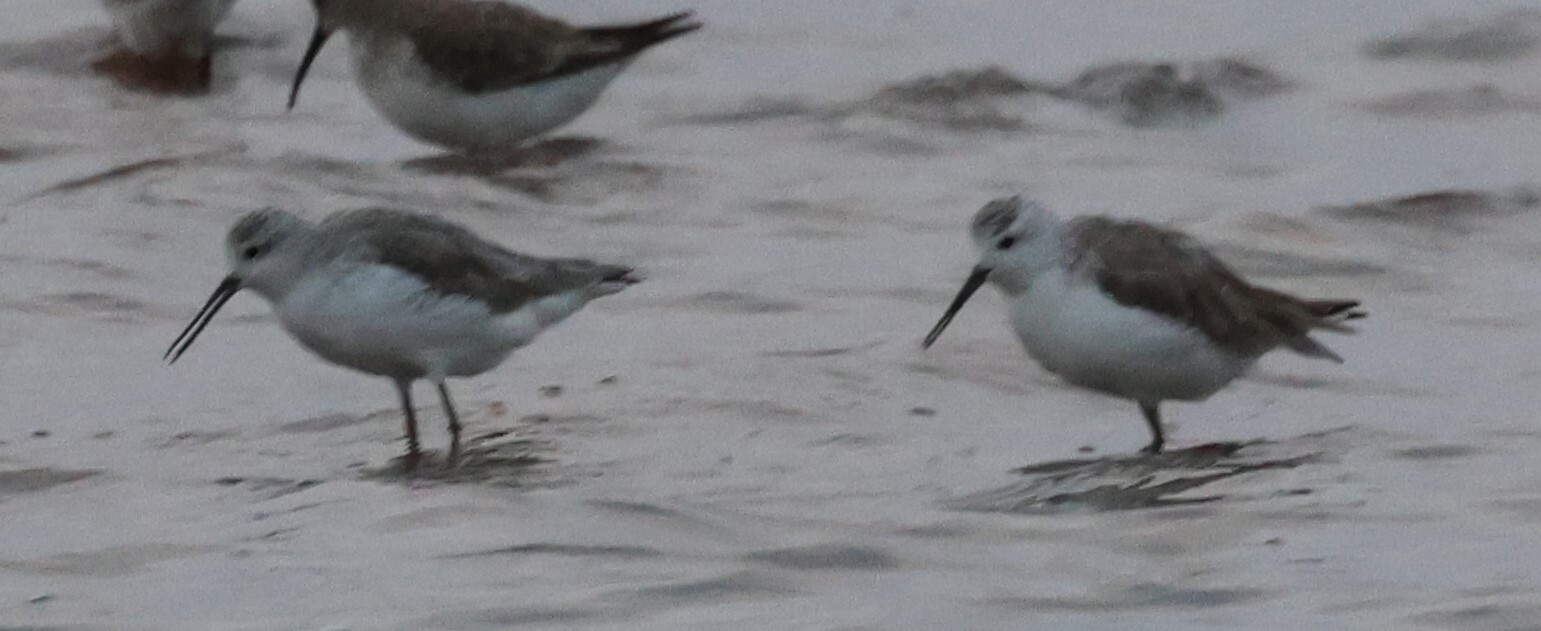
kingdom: Animalia
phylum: Chordata
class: Aves
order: Charadriiformes
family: Scolopacidae
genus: Tringa
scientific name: Tringa stagnatilis
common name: Marsh sandpiper
